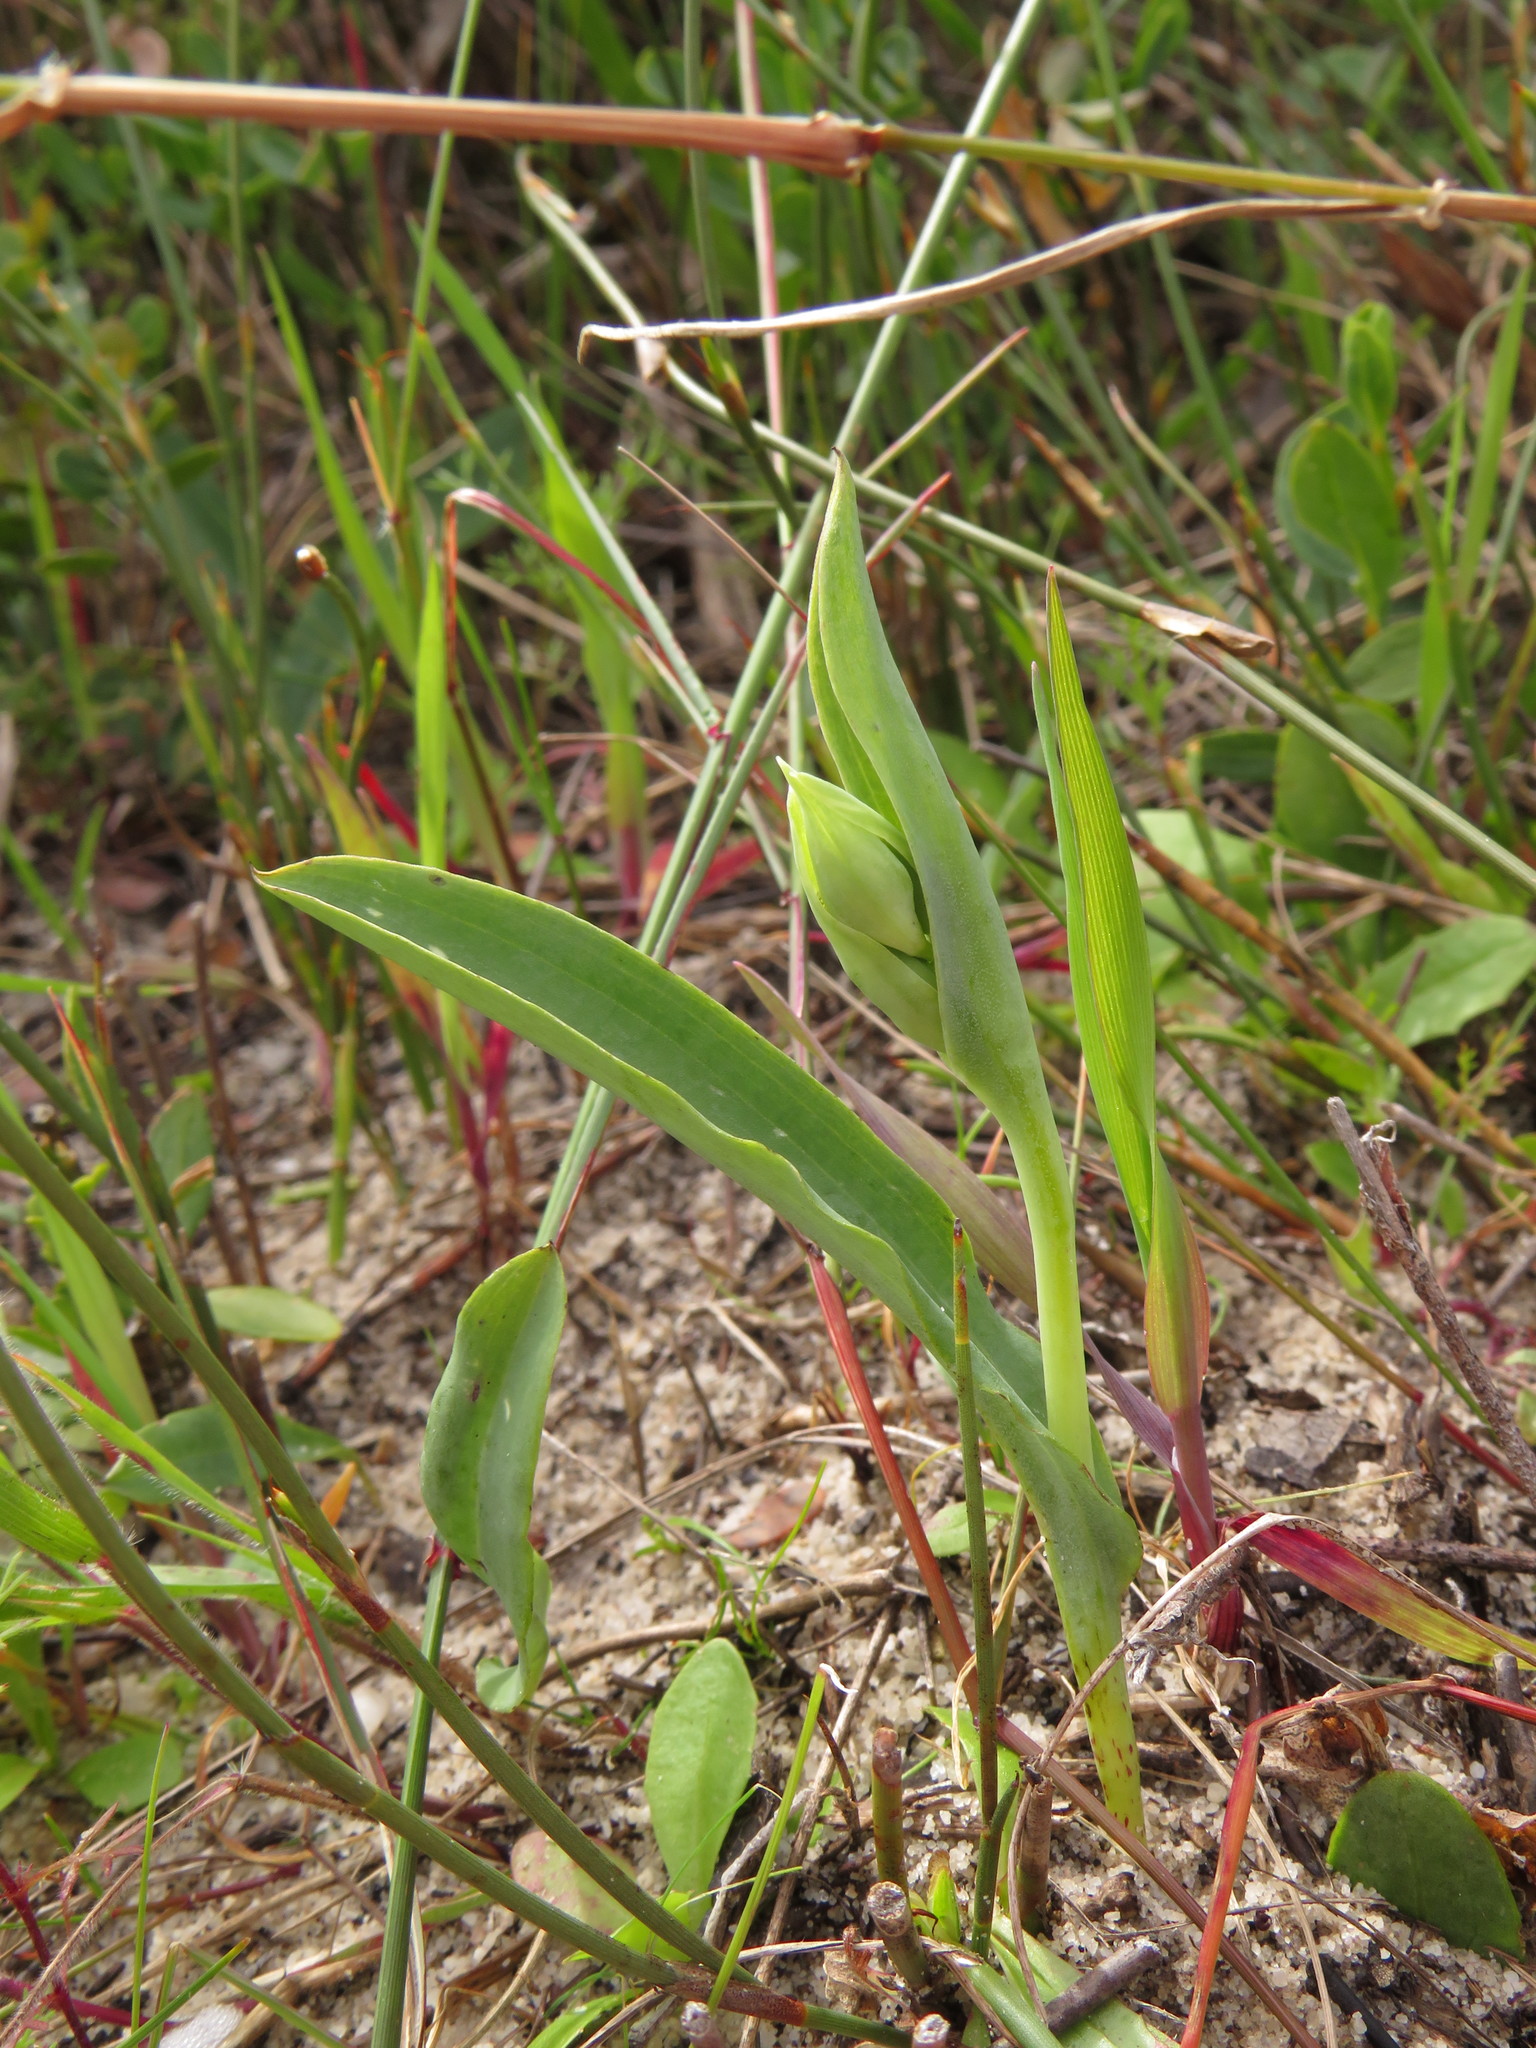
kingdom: Plantae
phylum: Tracheophyta
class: Liliopsida
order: Asparagales
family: Orchidaceae
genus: Pterygodium
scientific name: Pterygodium catholicum
